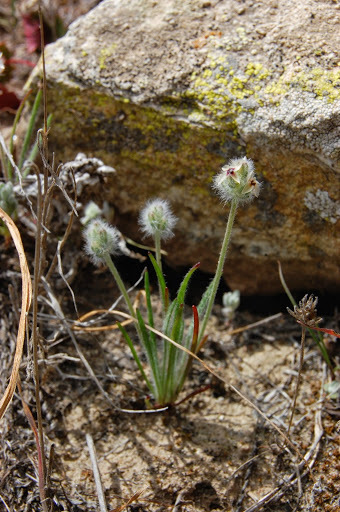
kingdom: Plantae
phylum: Tracheophyta
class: Magnoliopsida
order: Lamiales
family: Plantaginaceae
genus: Plantago
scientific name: Plantago erecta
